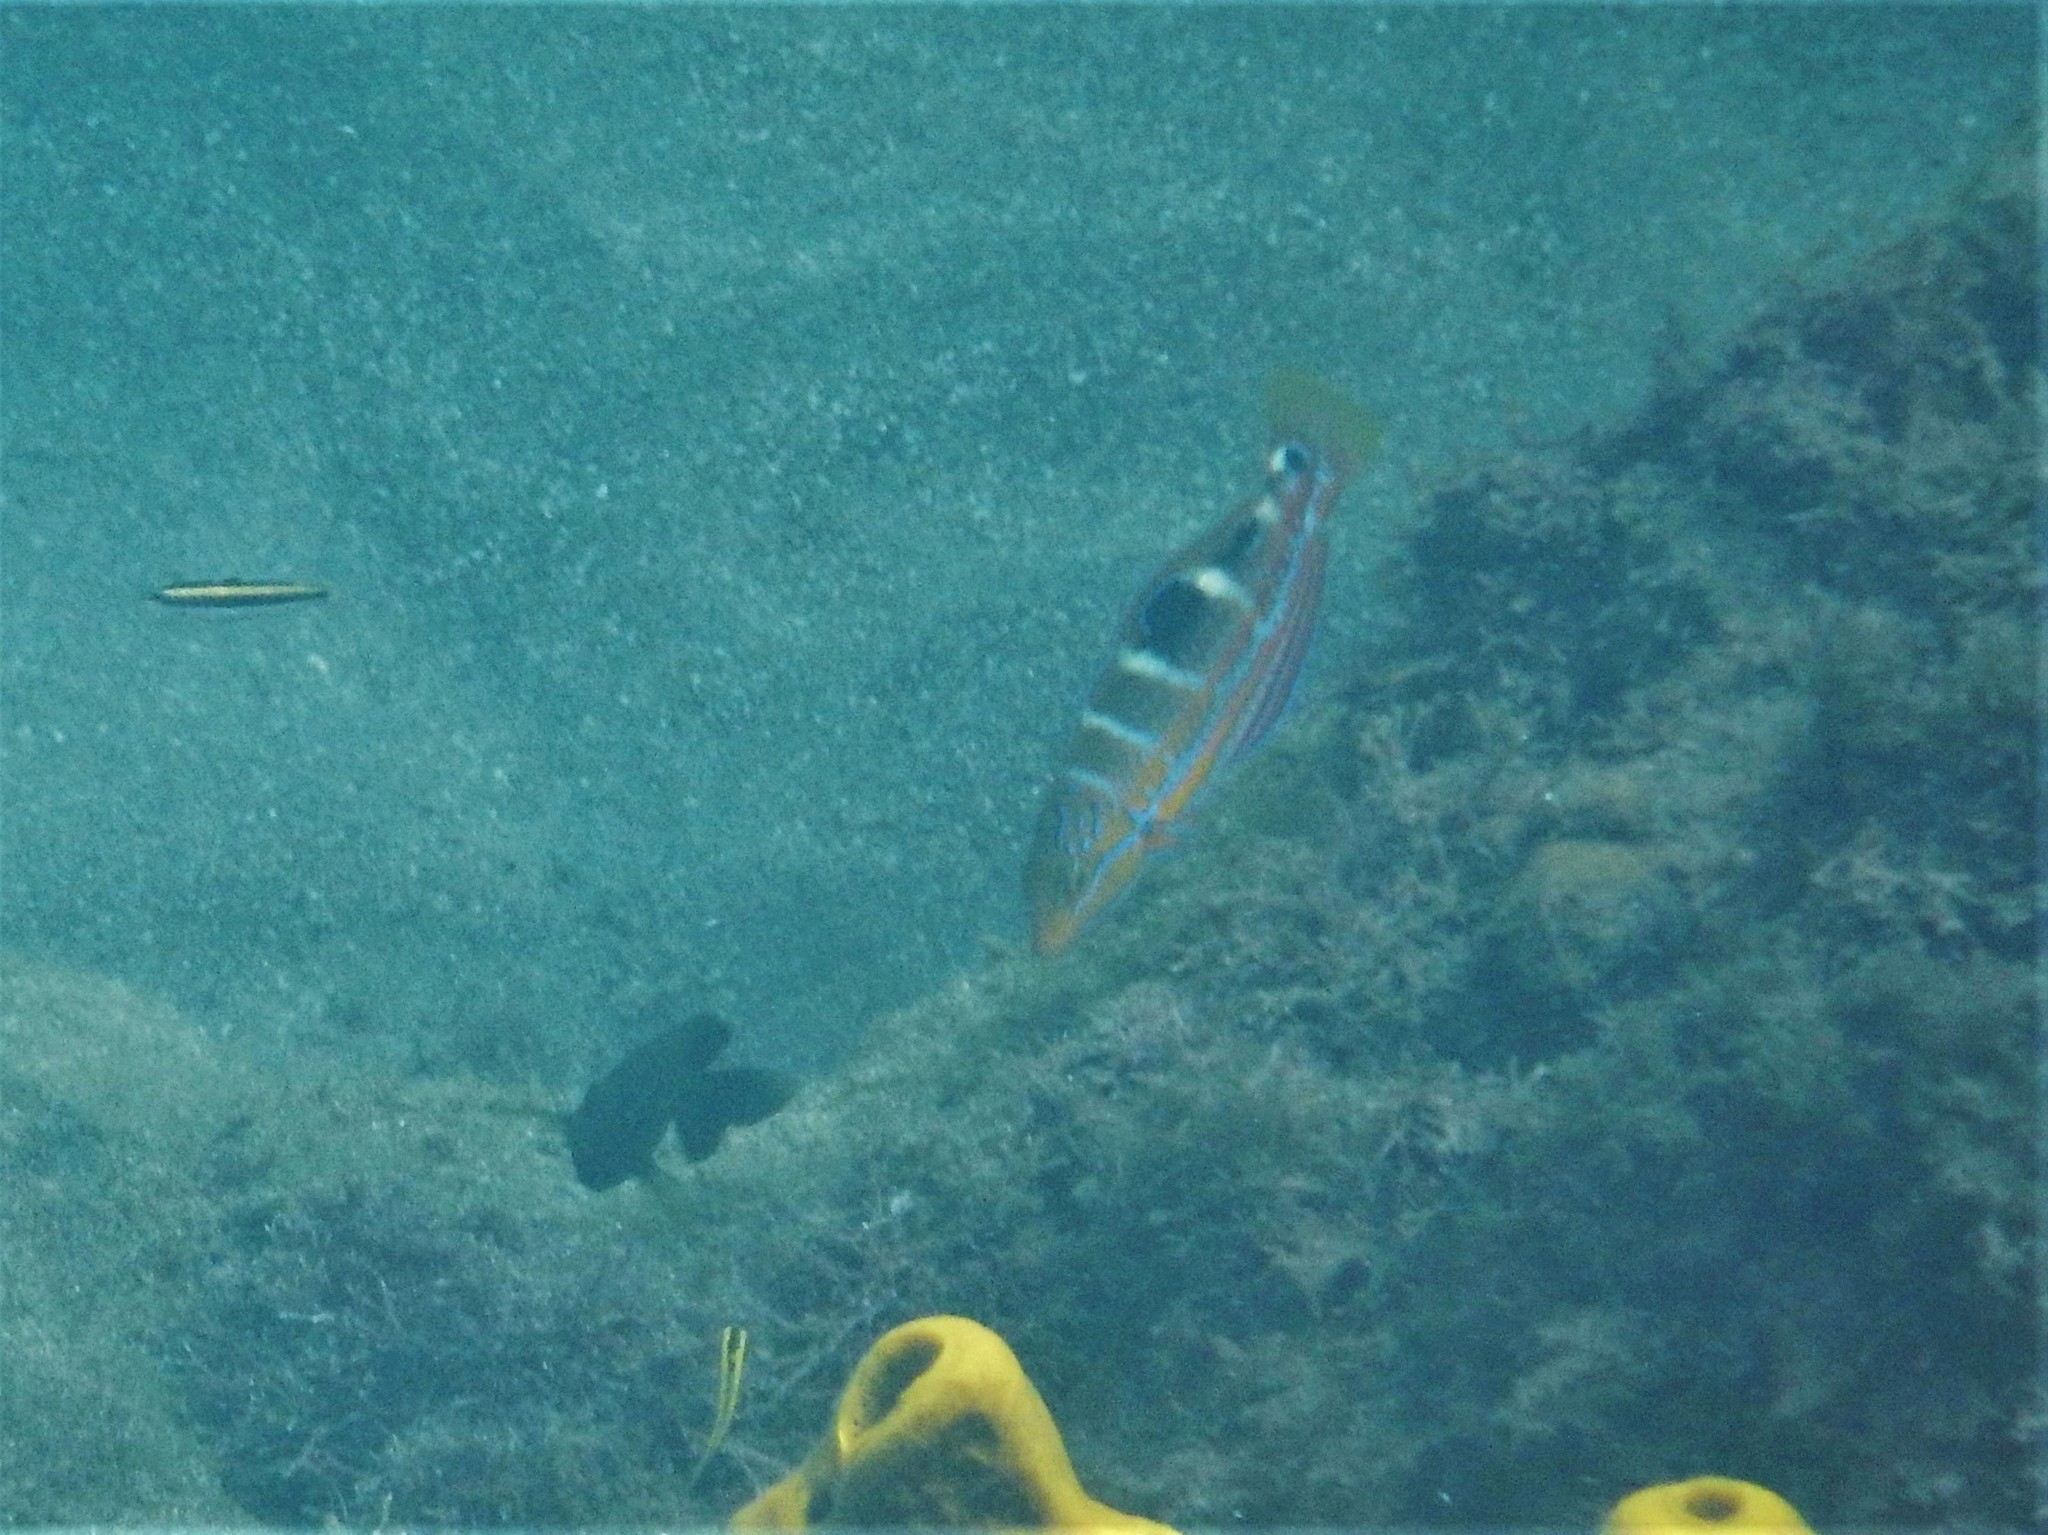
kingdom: Animalia
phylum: Chordata
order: Perciformes
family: Labridae
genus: Halichoeres
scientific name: Halichoeres radiatus
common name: Puddingwife
